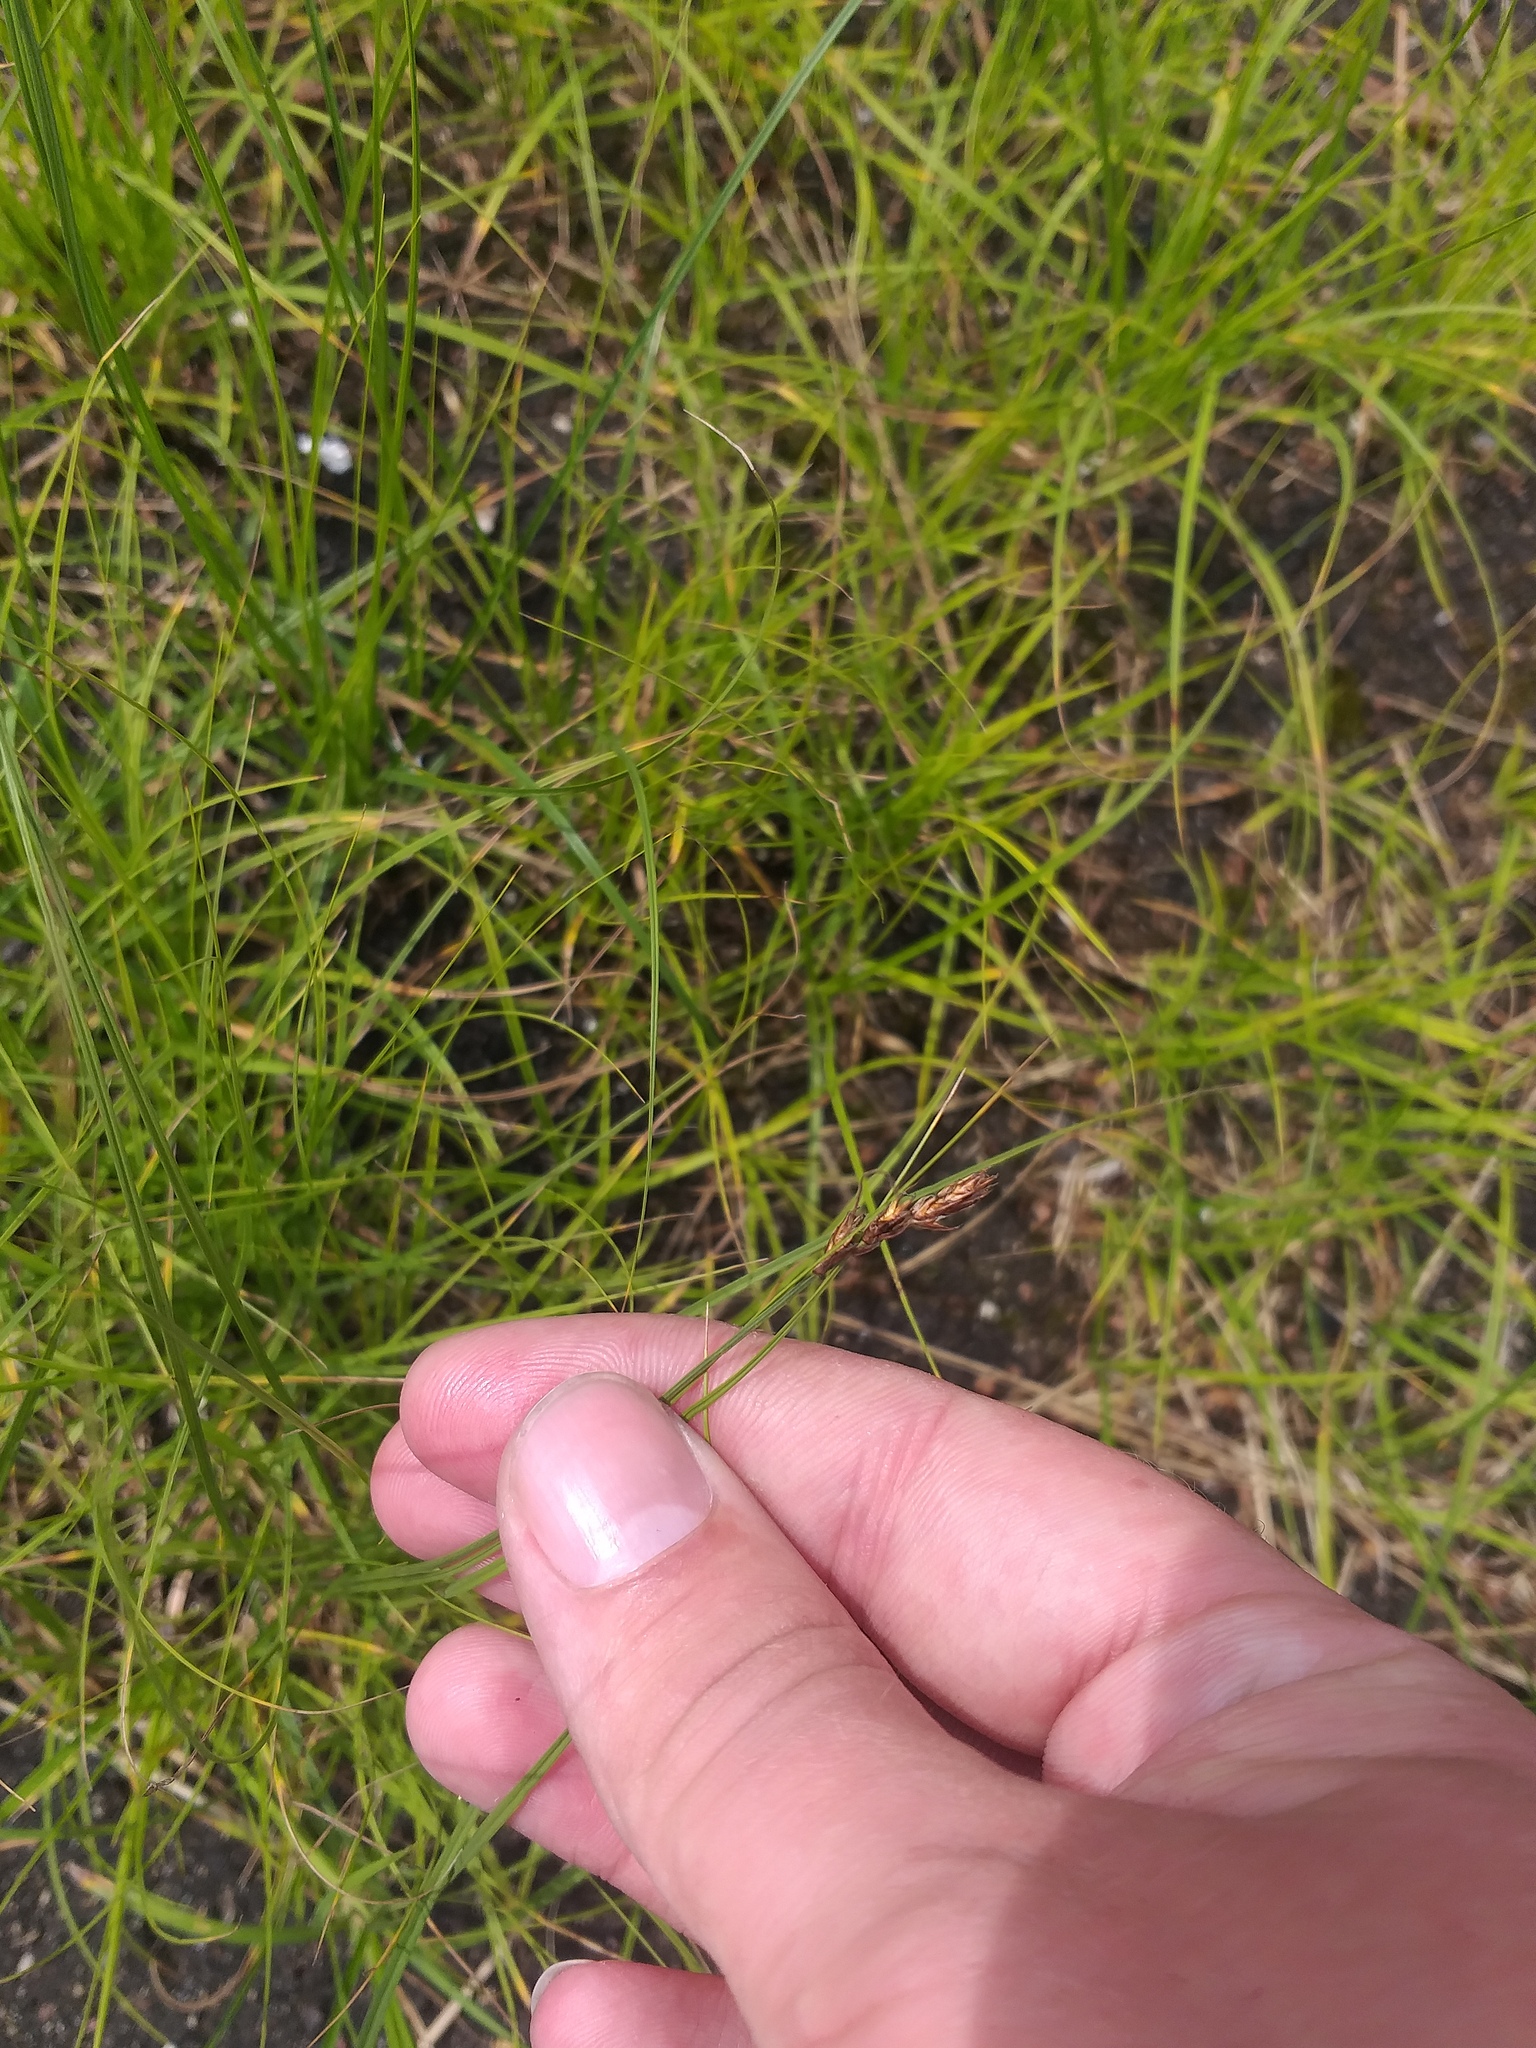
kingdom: Plantae
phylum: Tracheophyta
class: Liliopsida
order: Poales
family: Cyperaceae
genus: Carex
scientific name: Carex praecox
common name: Early sedge
